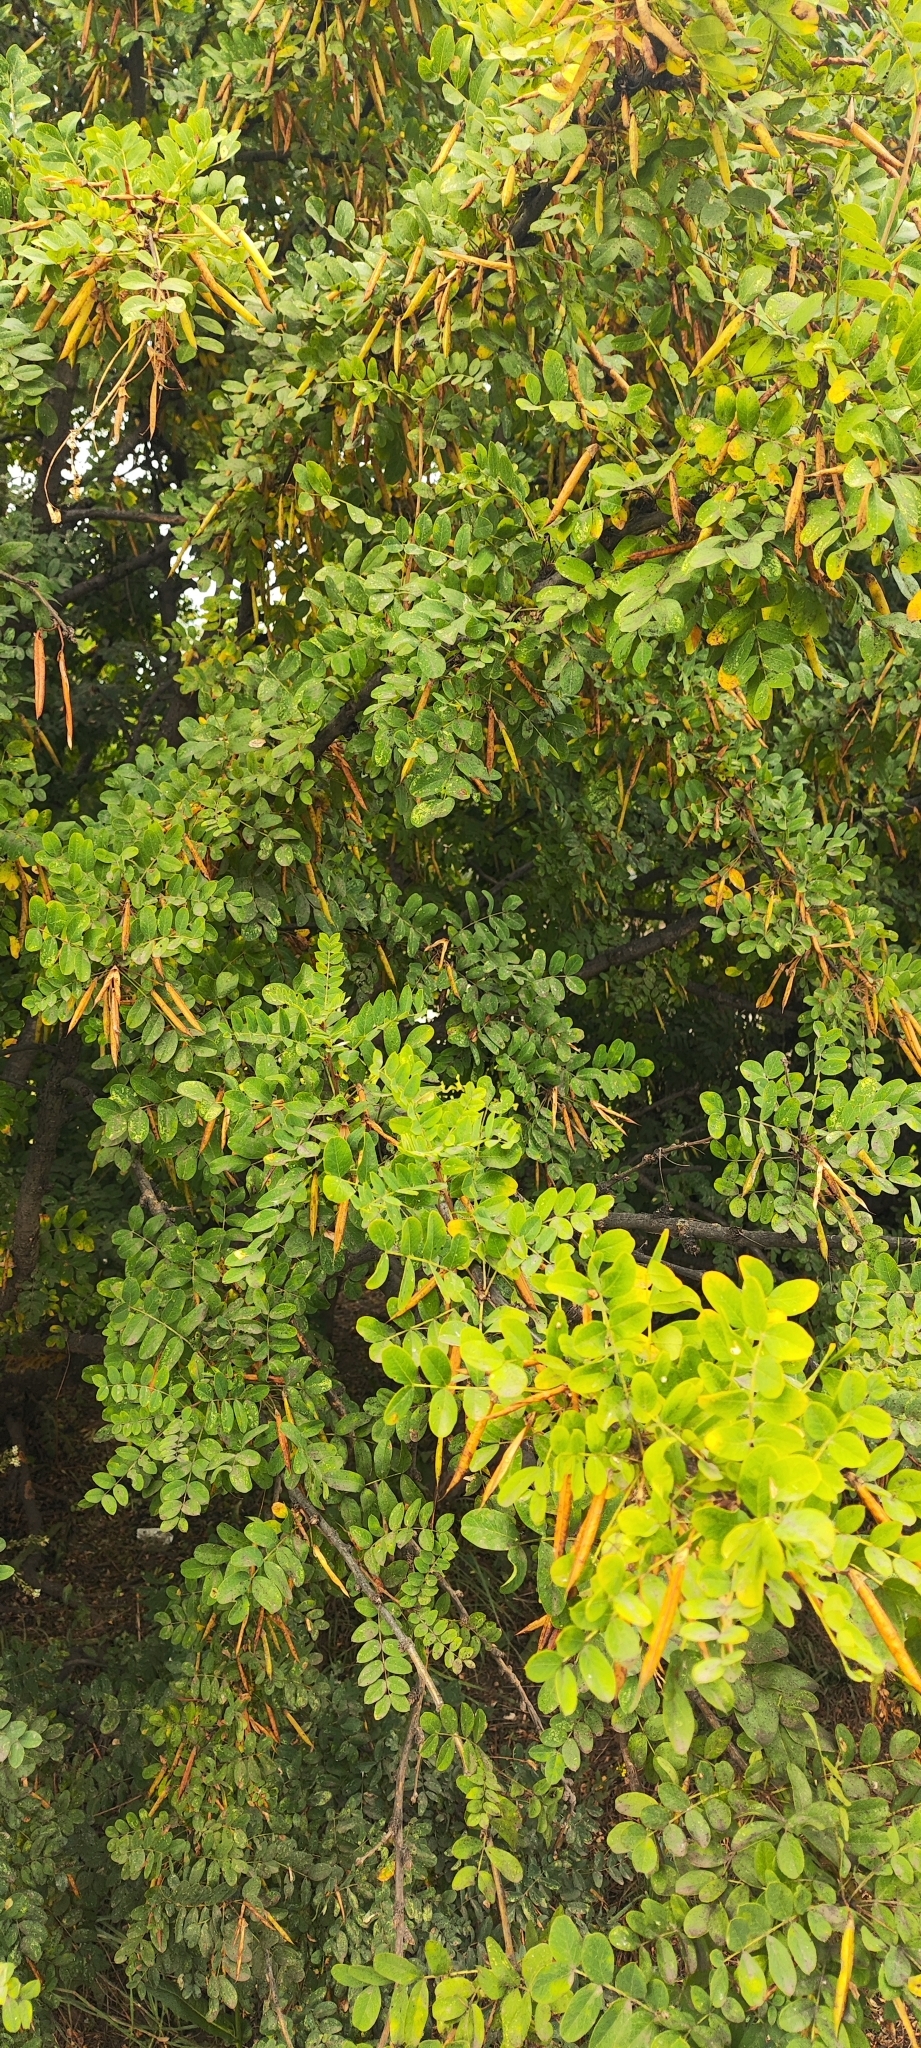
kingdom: Plantae
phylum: Tracheophyta
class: Magnoliopsida
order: Fabales
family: Fabaceae
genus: Caragana
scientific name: Caragana arborescens
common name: Siberian peashrub
